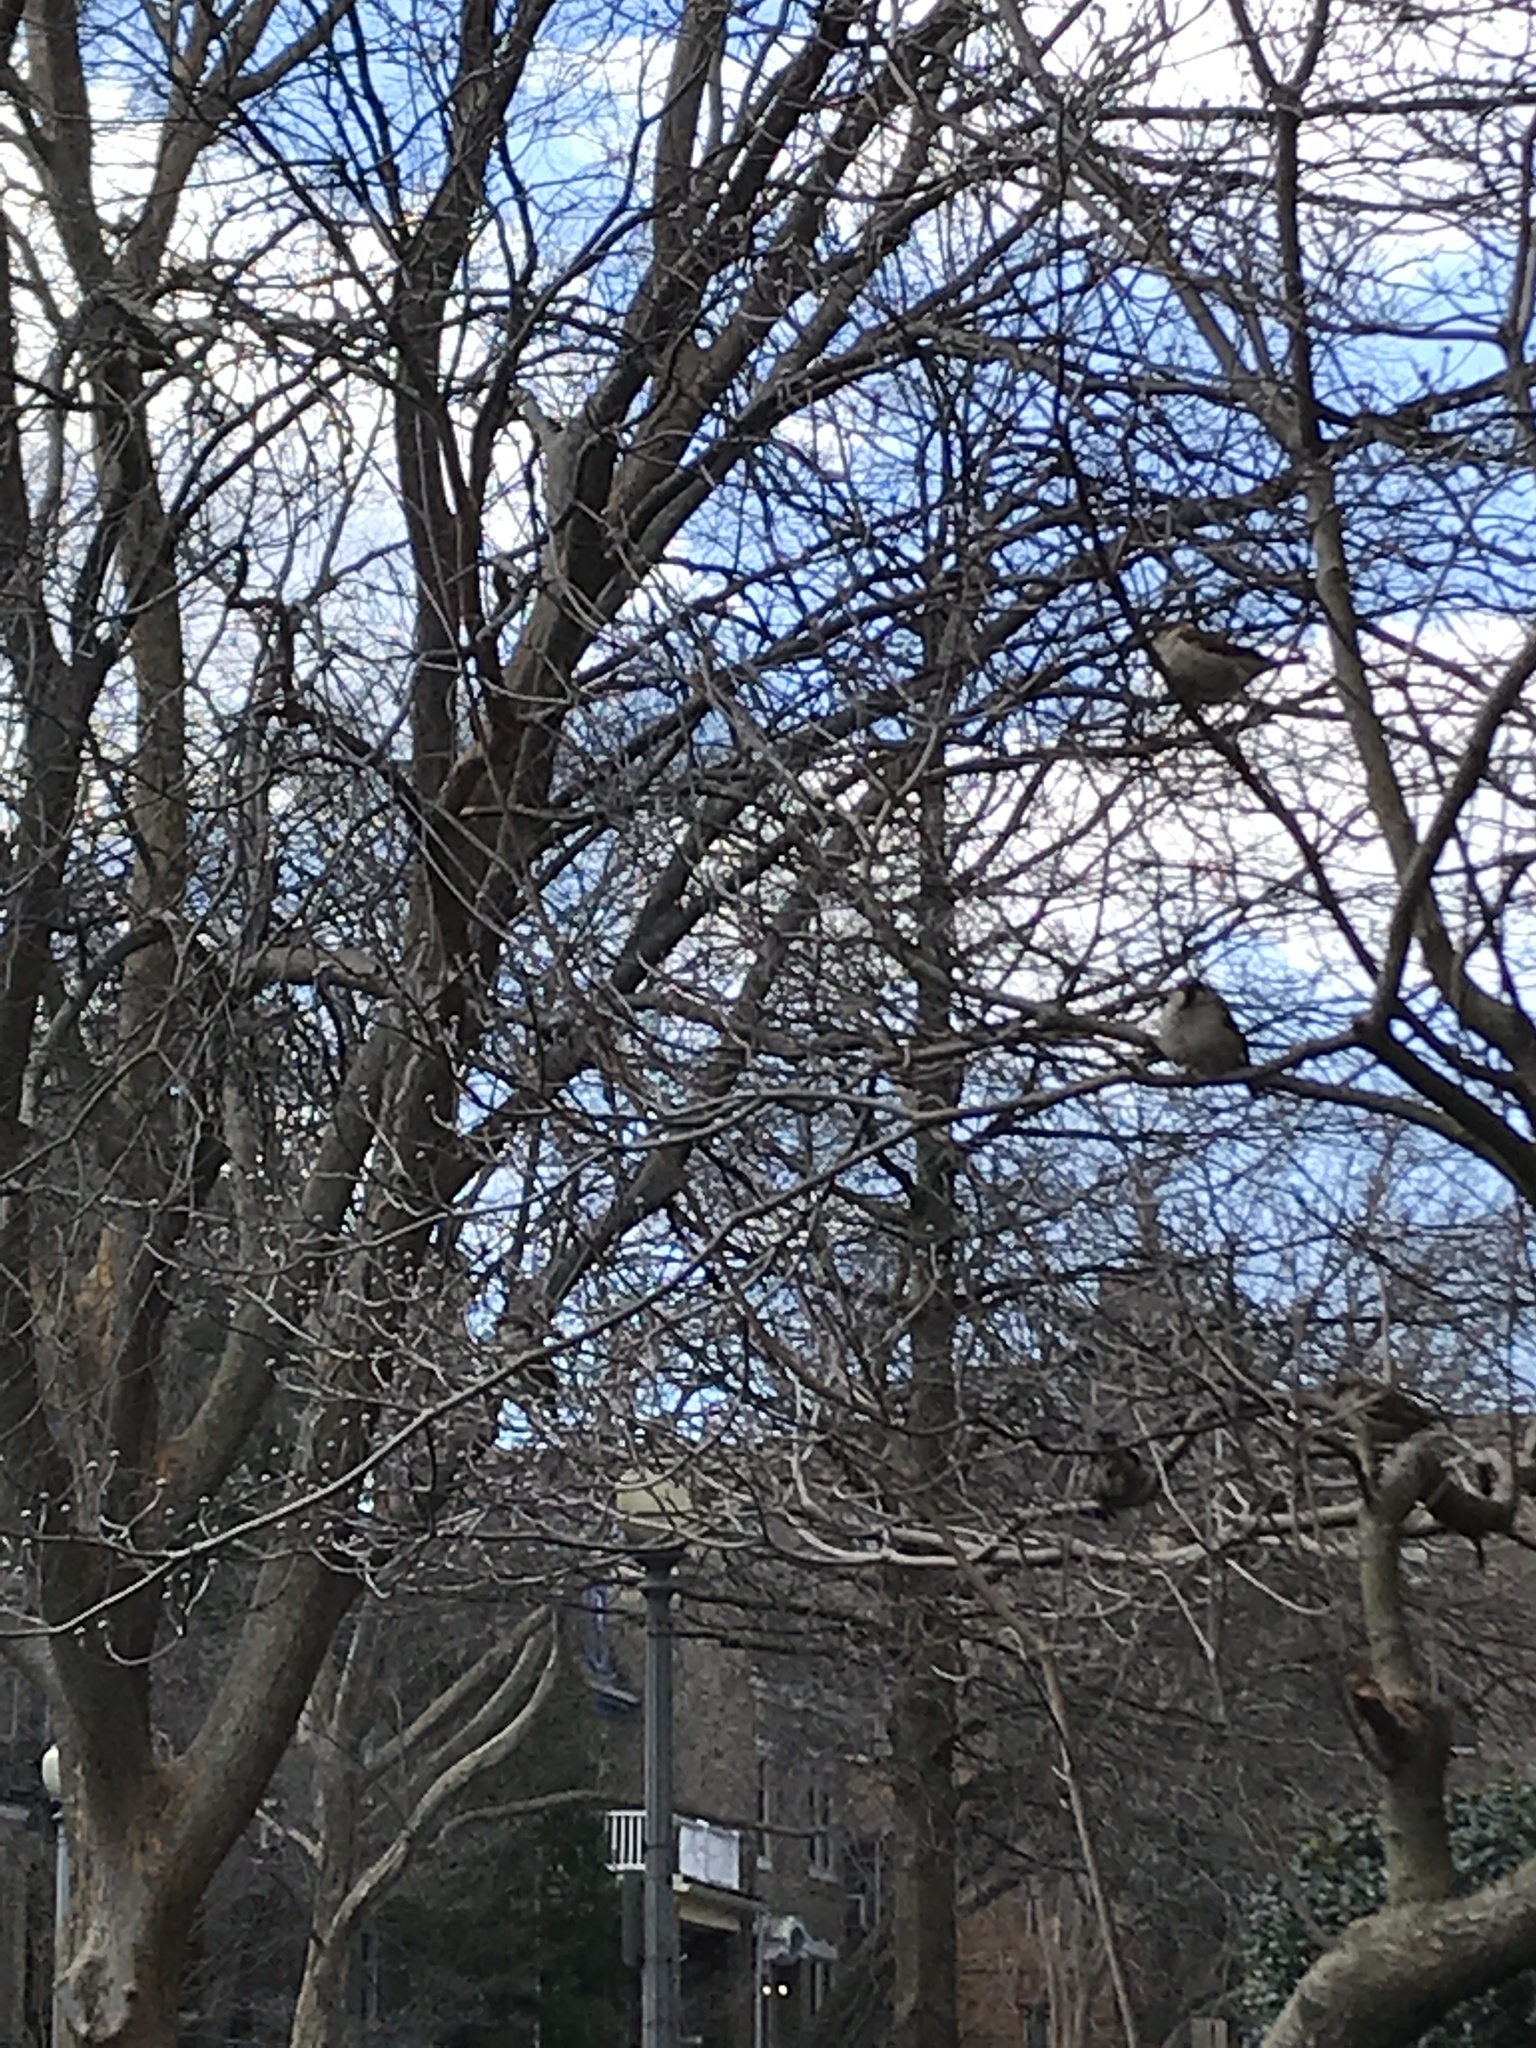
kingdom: Animalia
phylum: Chordata
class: Aves
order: Passeriformes
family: Passeridae
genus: Passer
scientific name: Passer domesticus
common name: House sparrow
